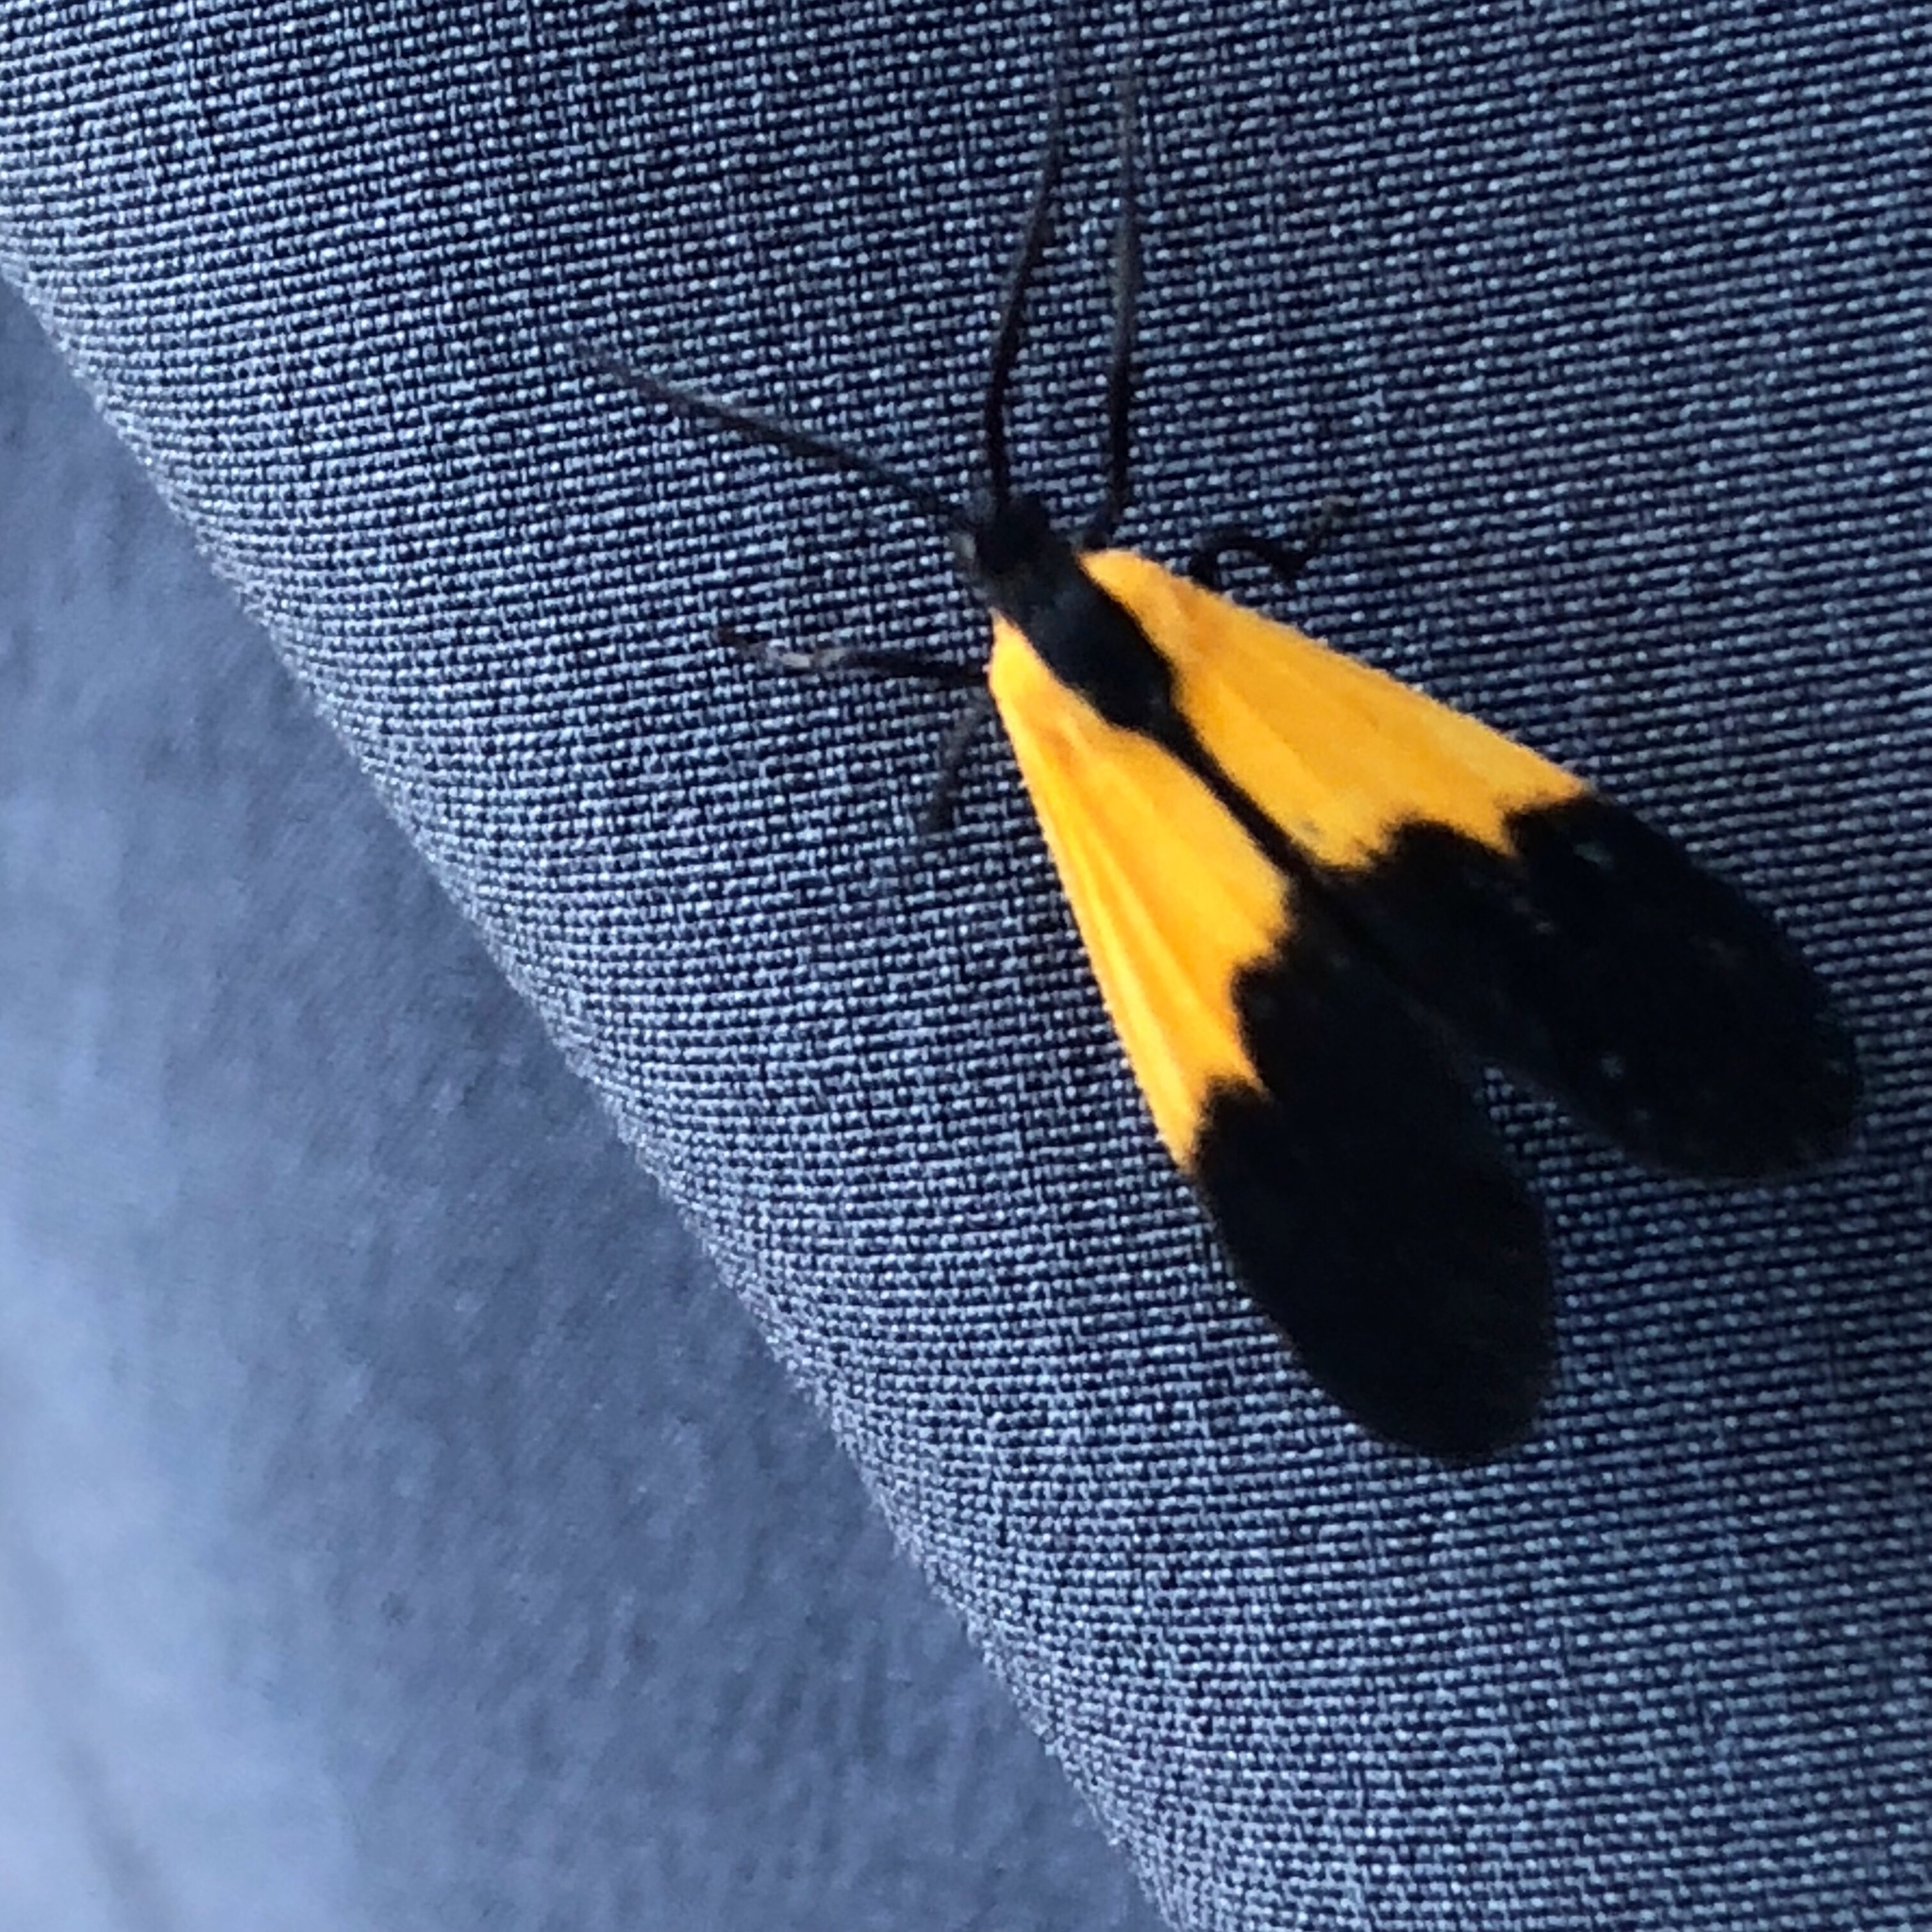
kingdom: Animalia
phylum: Arthropoda
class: Insecta
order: Lepidoptera
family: Erebidae
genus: Lycomorpha
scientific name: Lycomorpha pholus
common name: Black-and-yellow lichen moth
